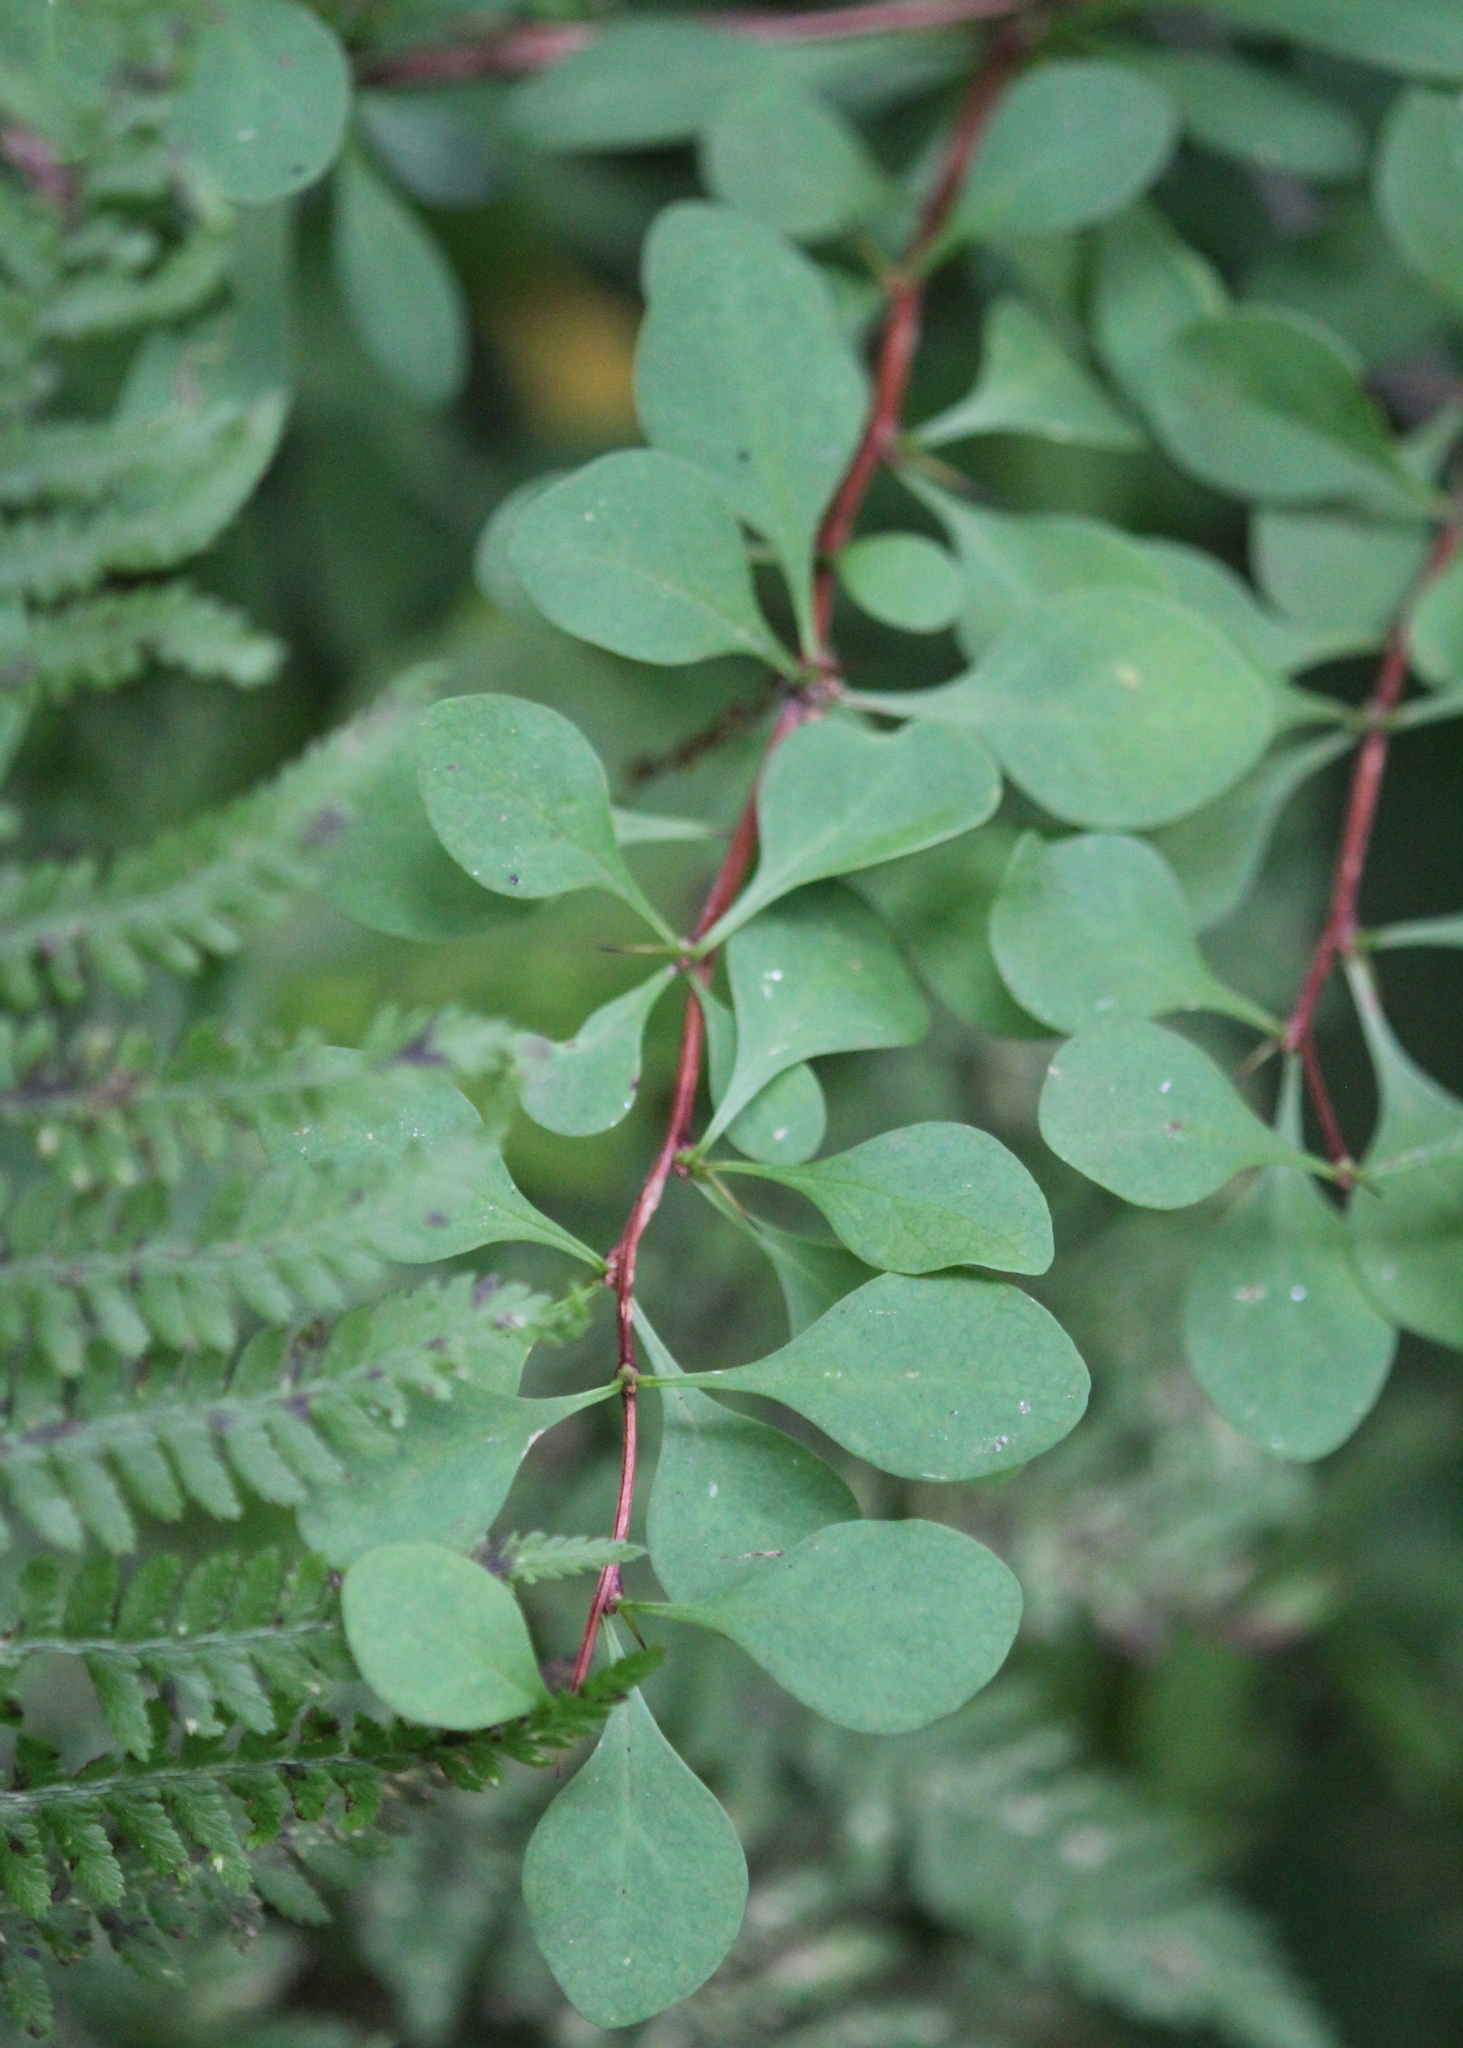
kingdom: Plantae
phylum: Tracheophyta
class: Magnoliopsida
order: Ranunculales
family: Berberidaceae
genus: Berberis
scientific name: Berberis thunbergii
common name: Japanese barberry
